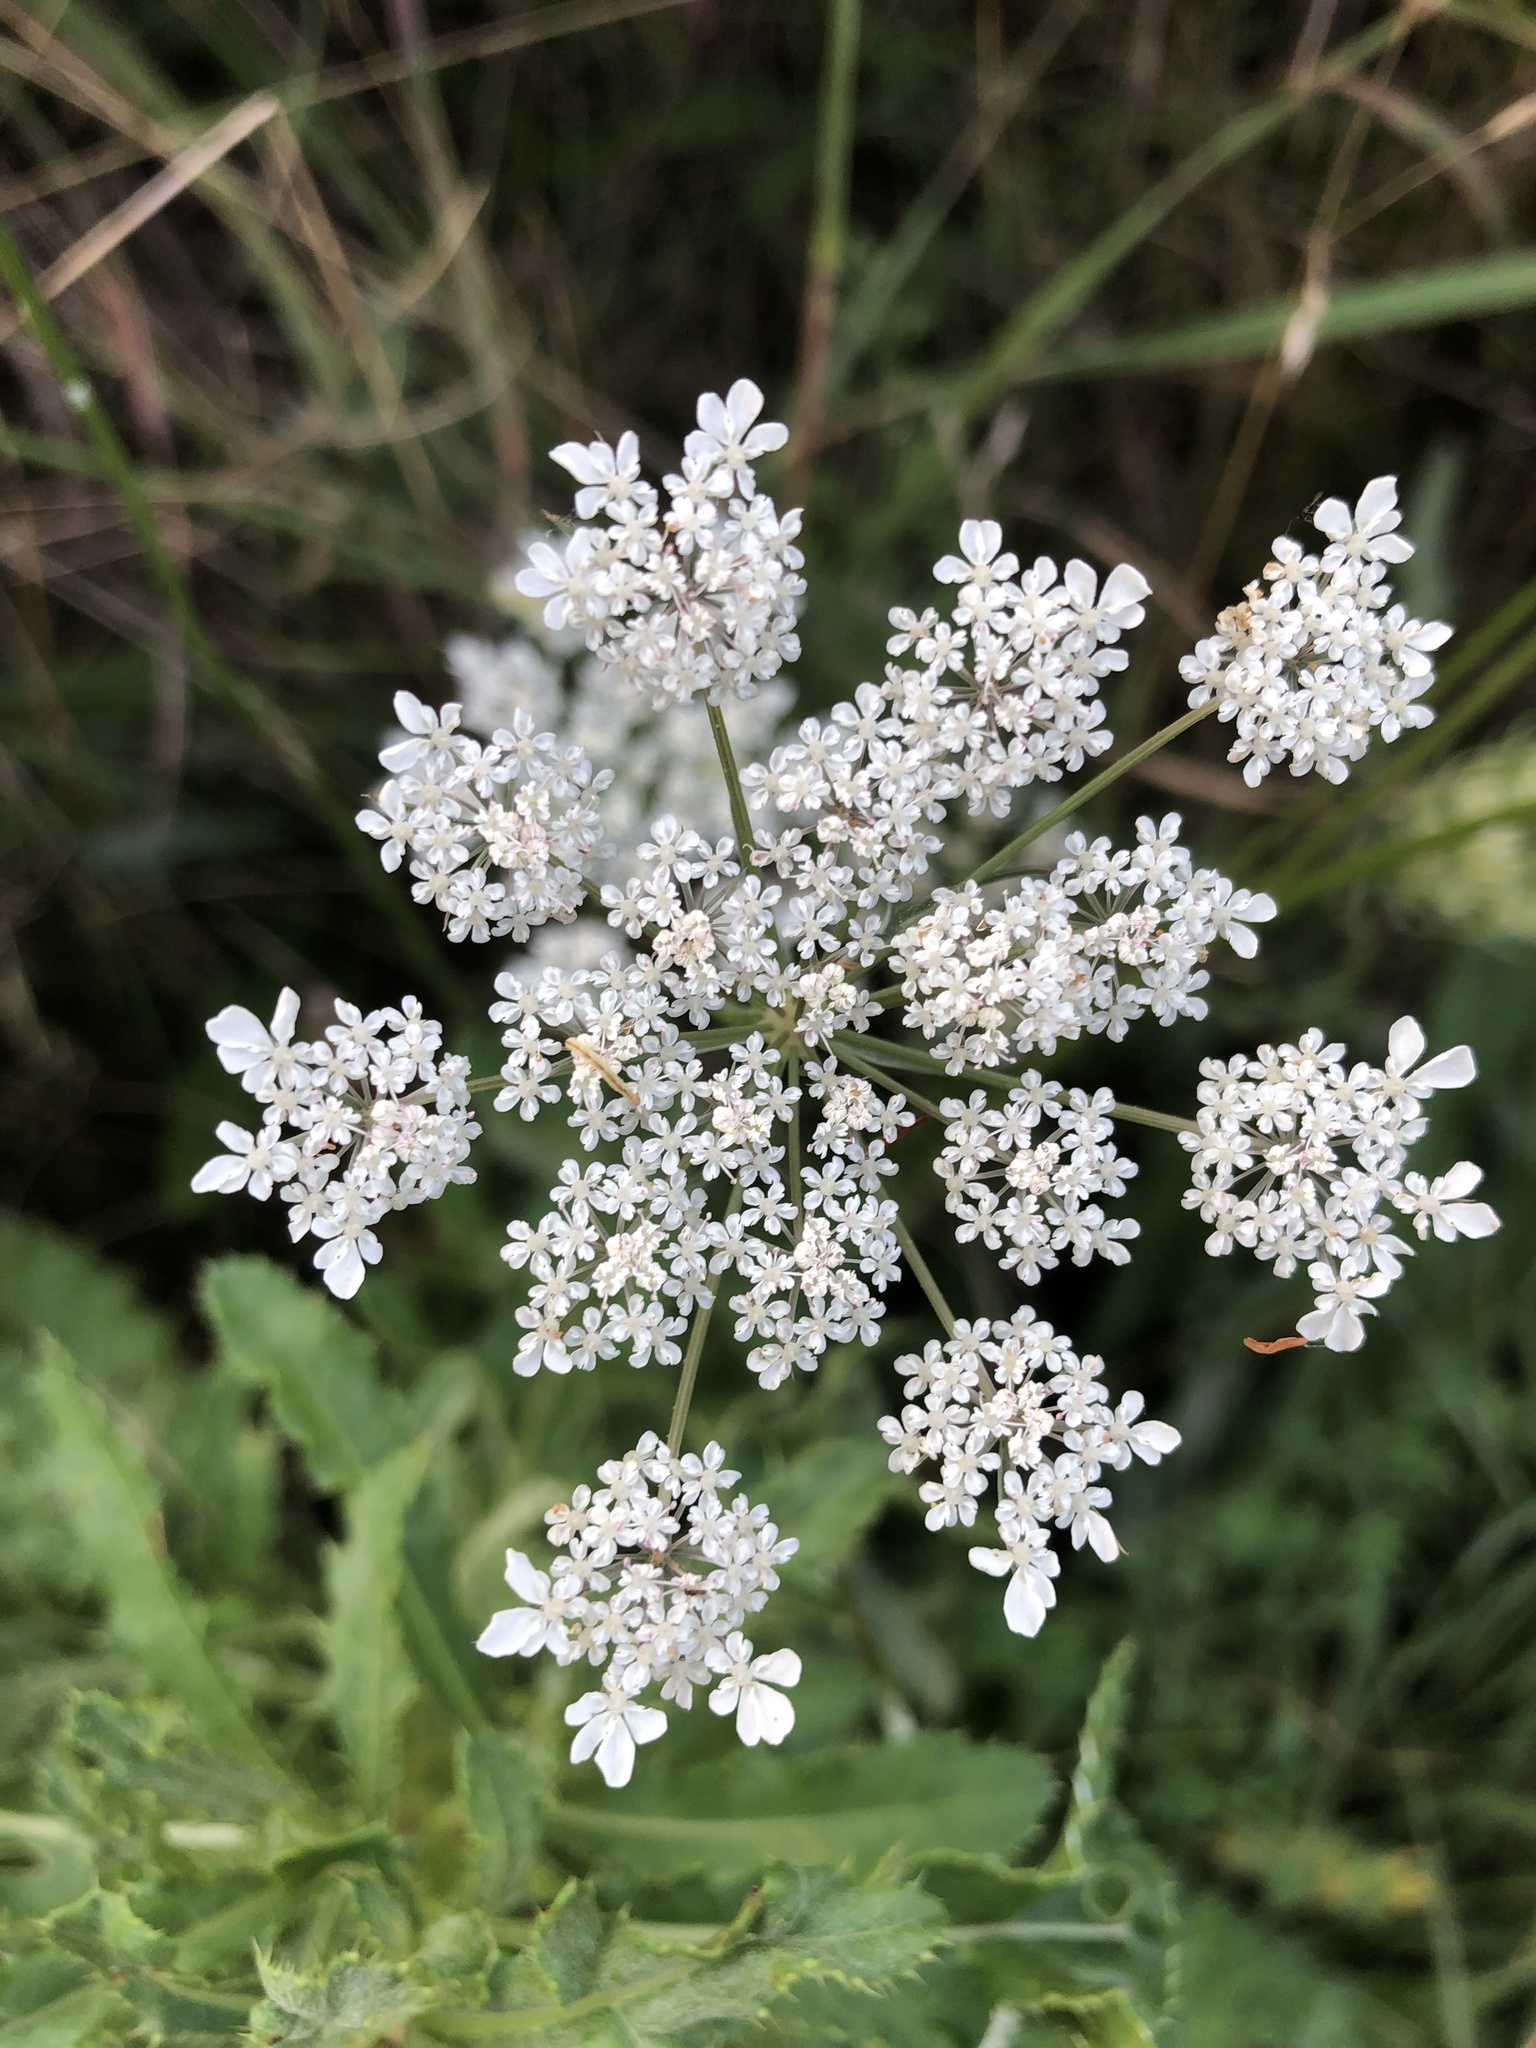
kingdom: Plantae
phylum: Tracheophyta
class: Magnoliopsida
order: Apiales
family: Apiaceae
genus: Daucus
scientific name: Daucus carota
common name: Wild carrot
